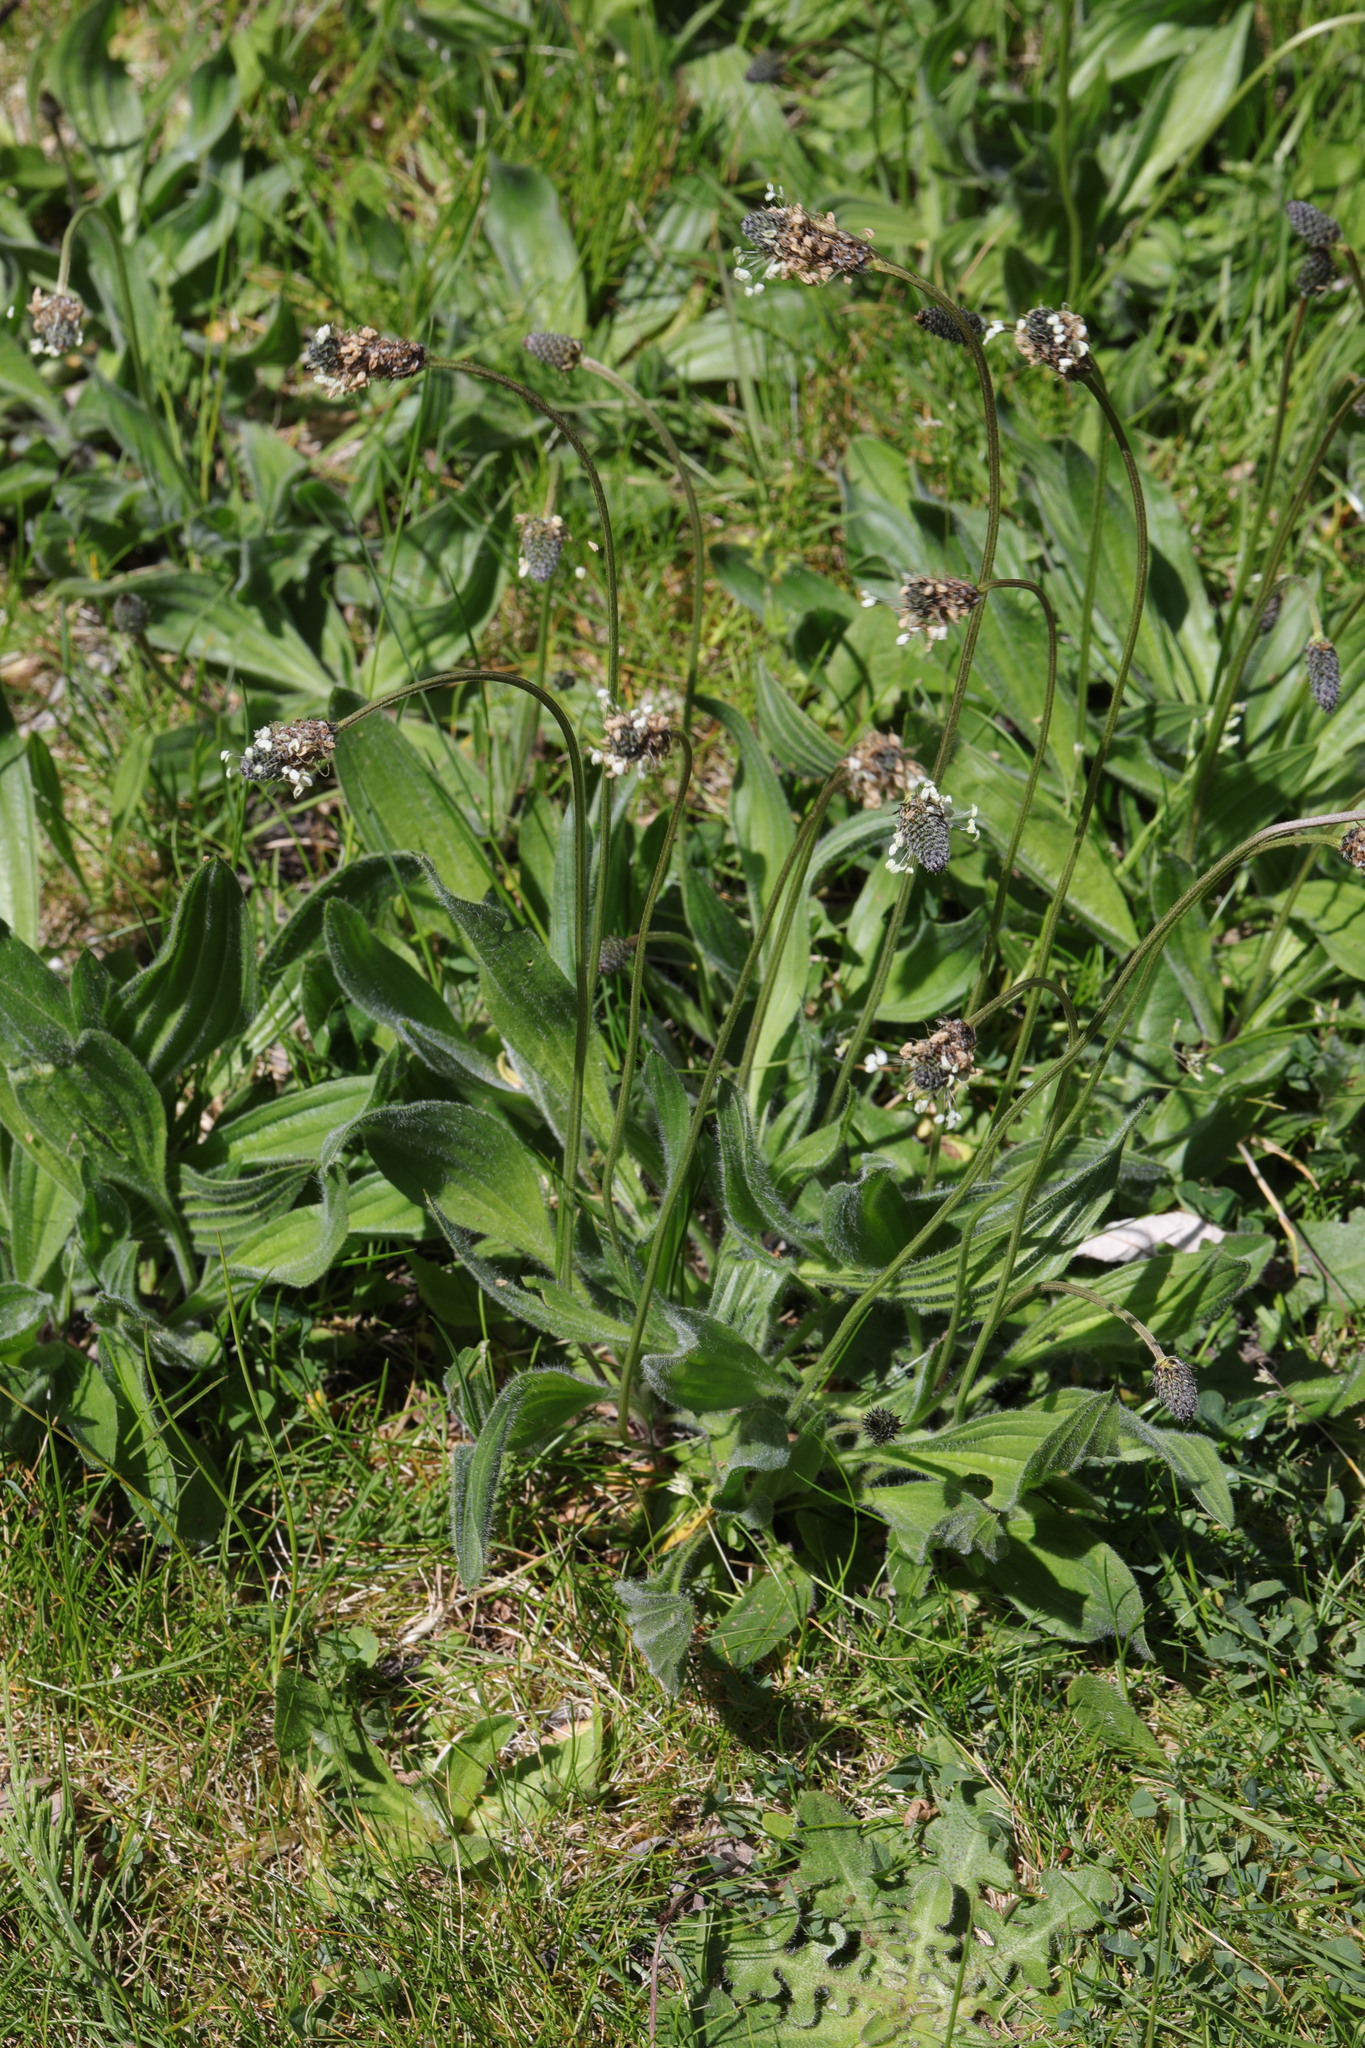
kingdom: Plantae
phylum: Tracheophyta
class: Magnoliopsida
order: Lamiales
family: Plantaginaceae
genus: Plantago
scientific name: Plantago lanceolata
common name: Ribwort plantain
